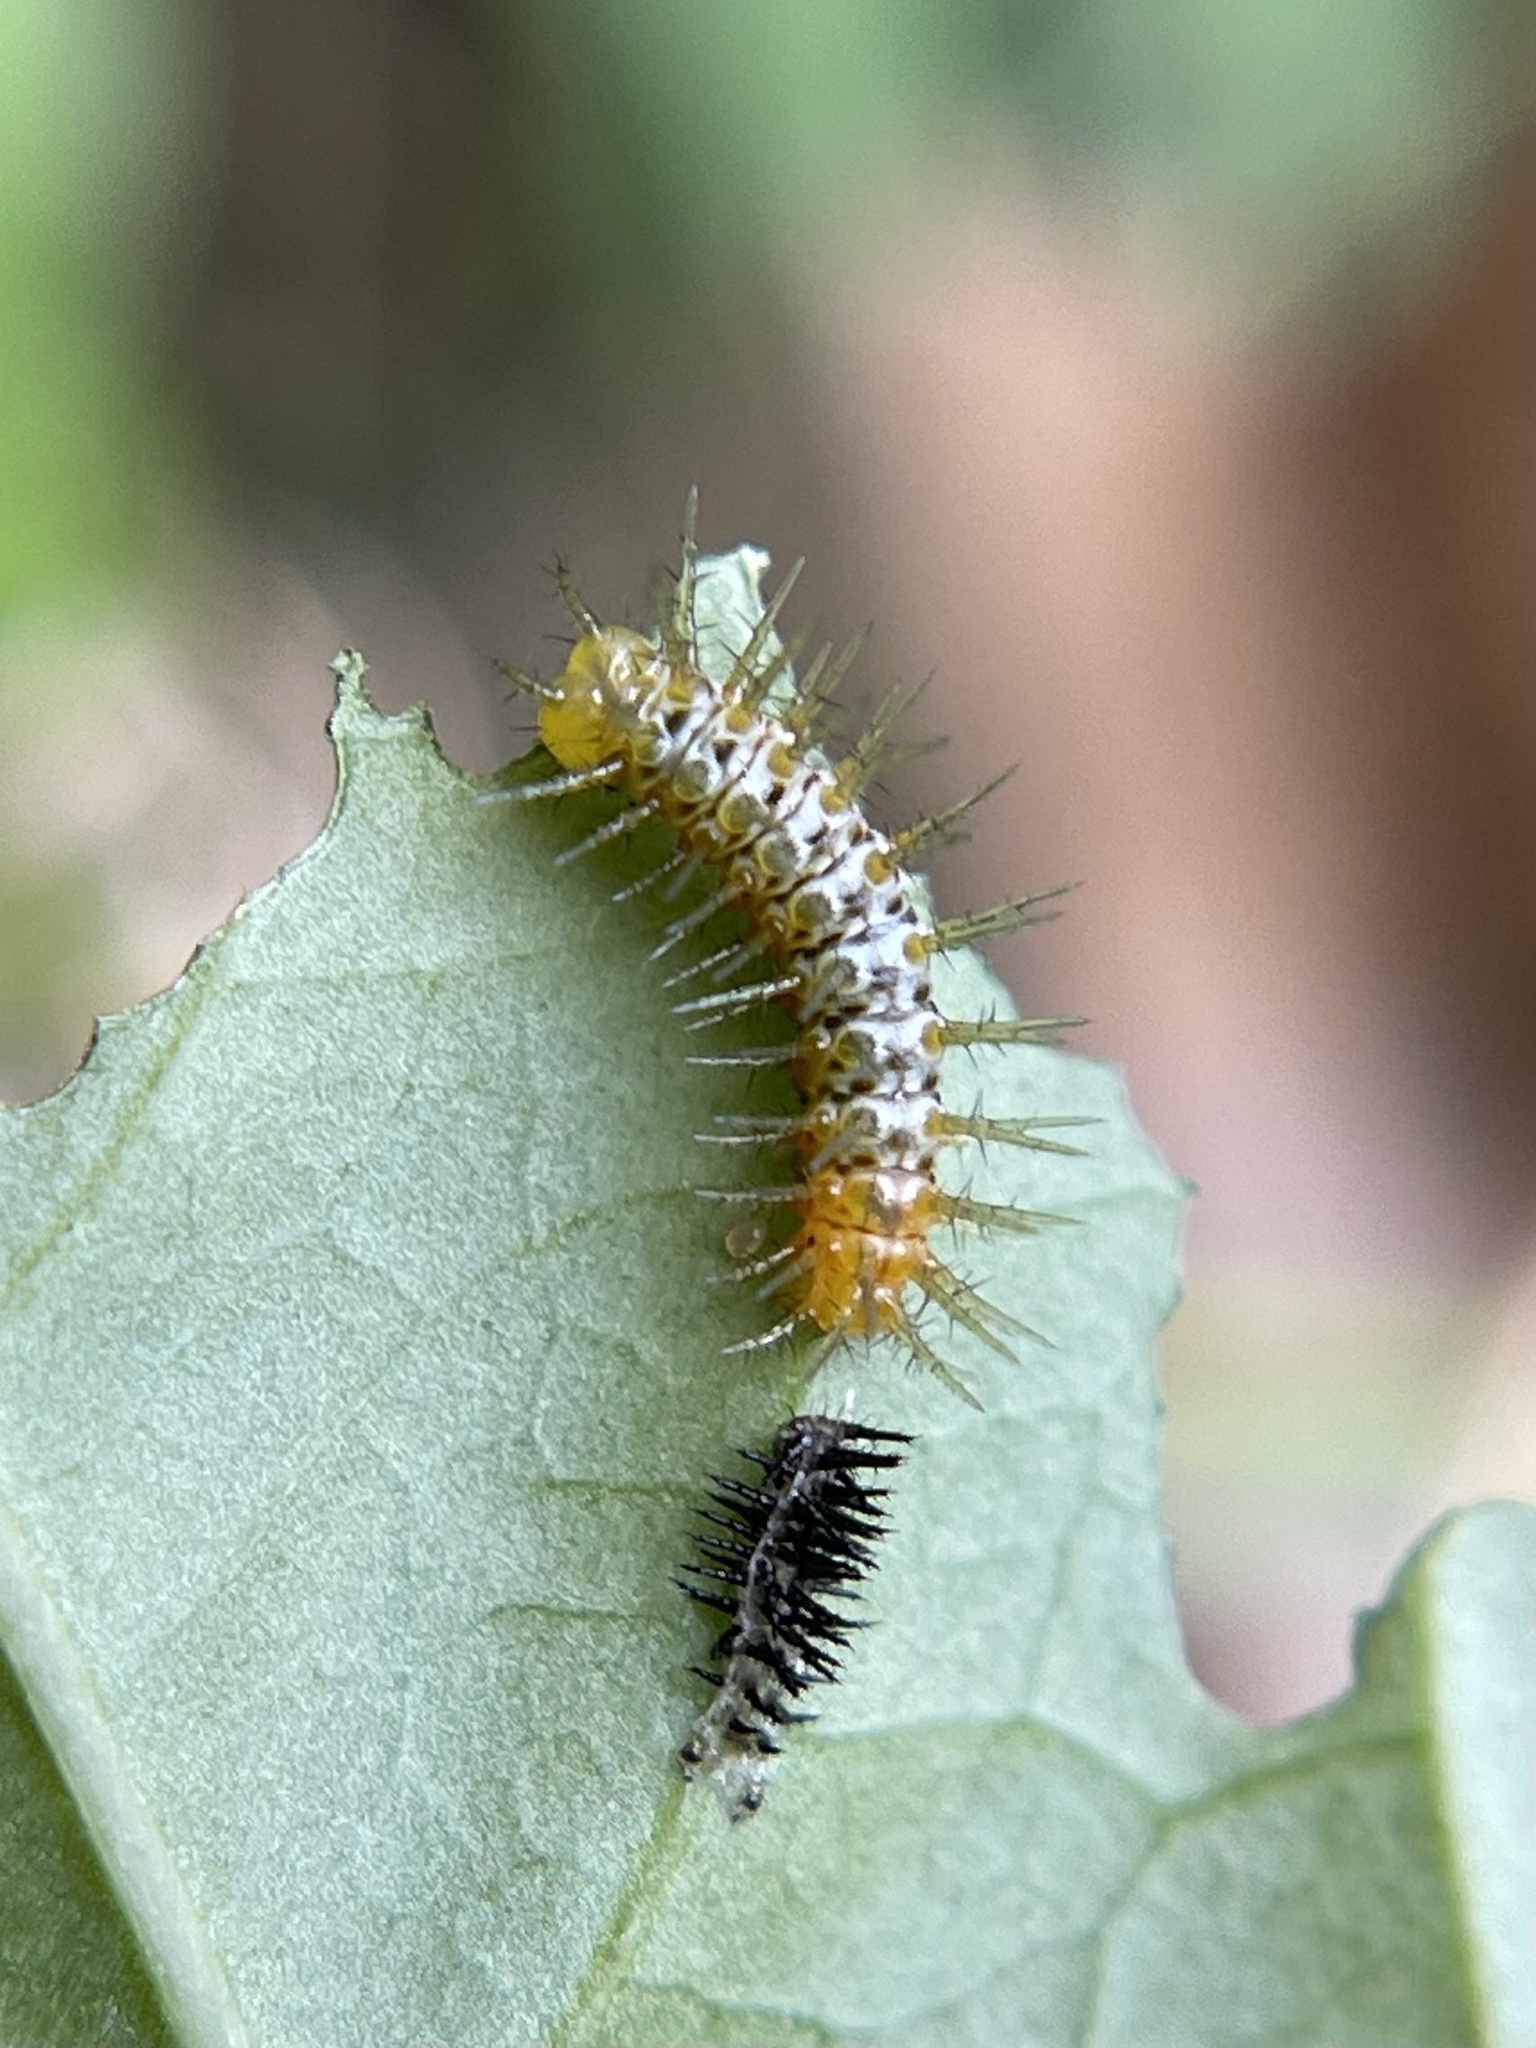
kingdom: Animalia
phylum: Arthropoda
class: Insecta
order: Lepidoptera
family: Nymphalidae
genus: Heliconius
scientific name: Heliconius charithonia
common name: Zebra long wing
